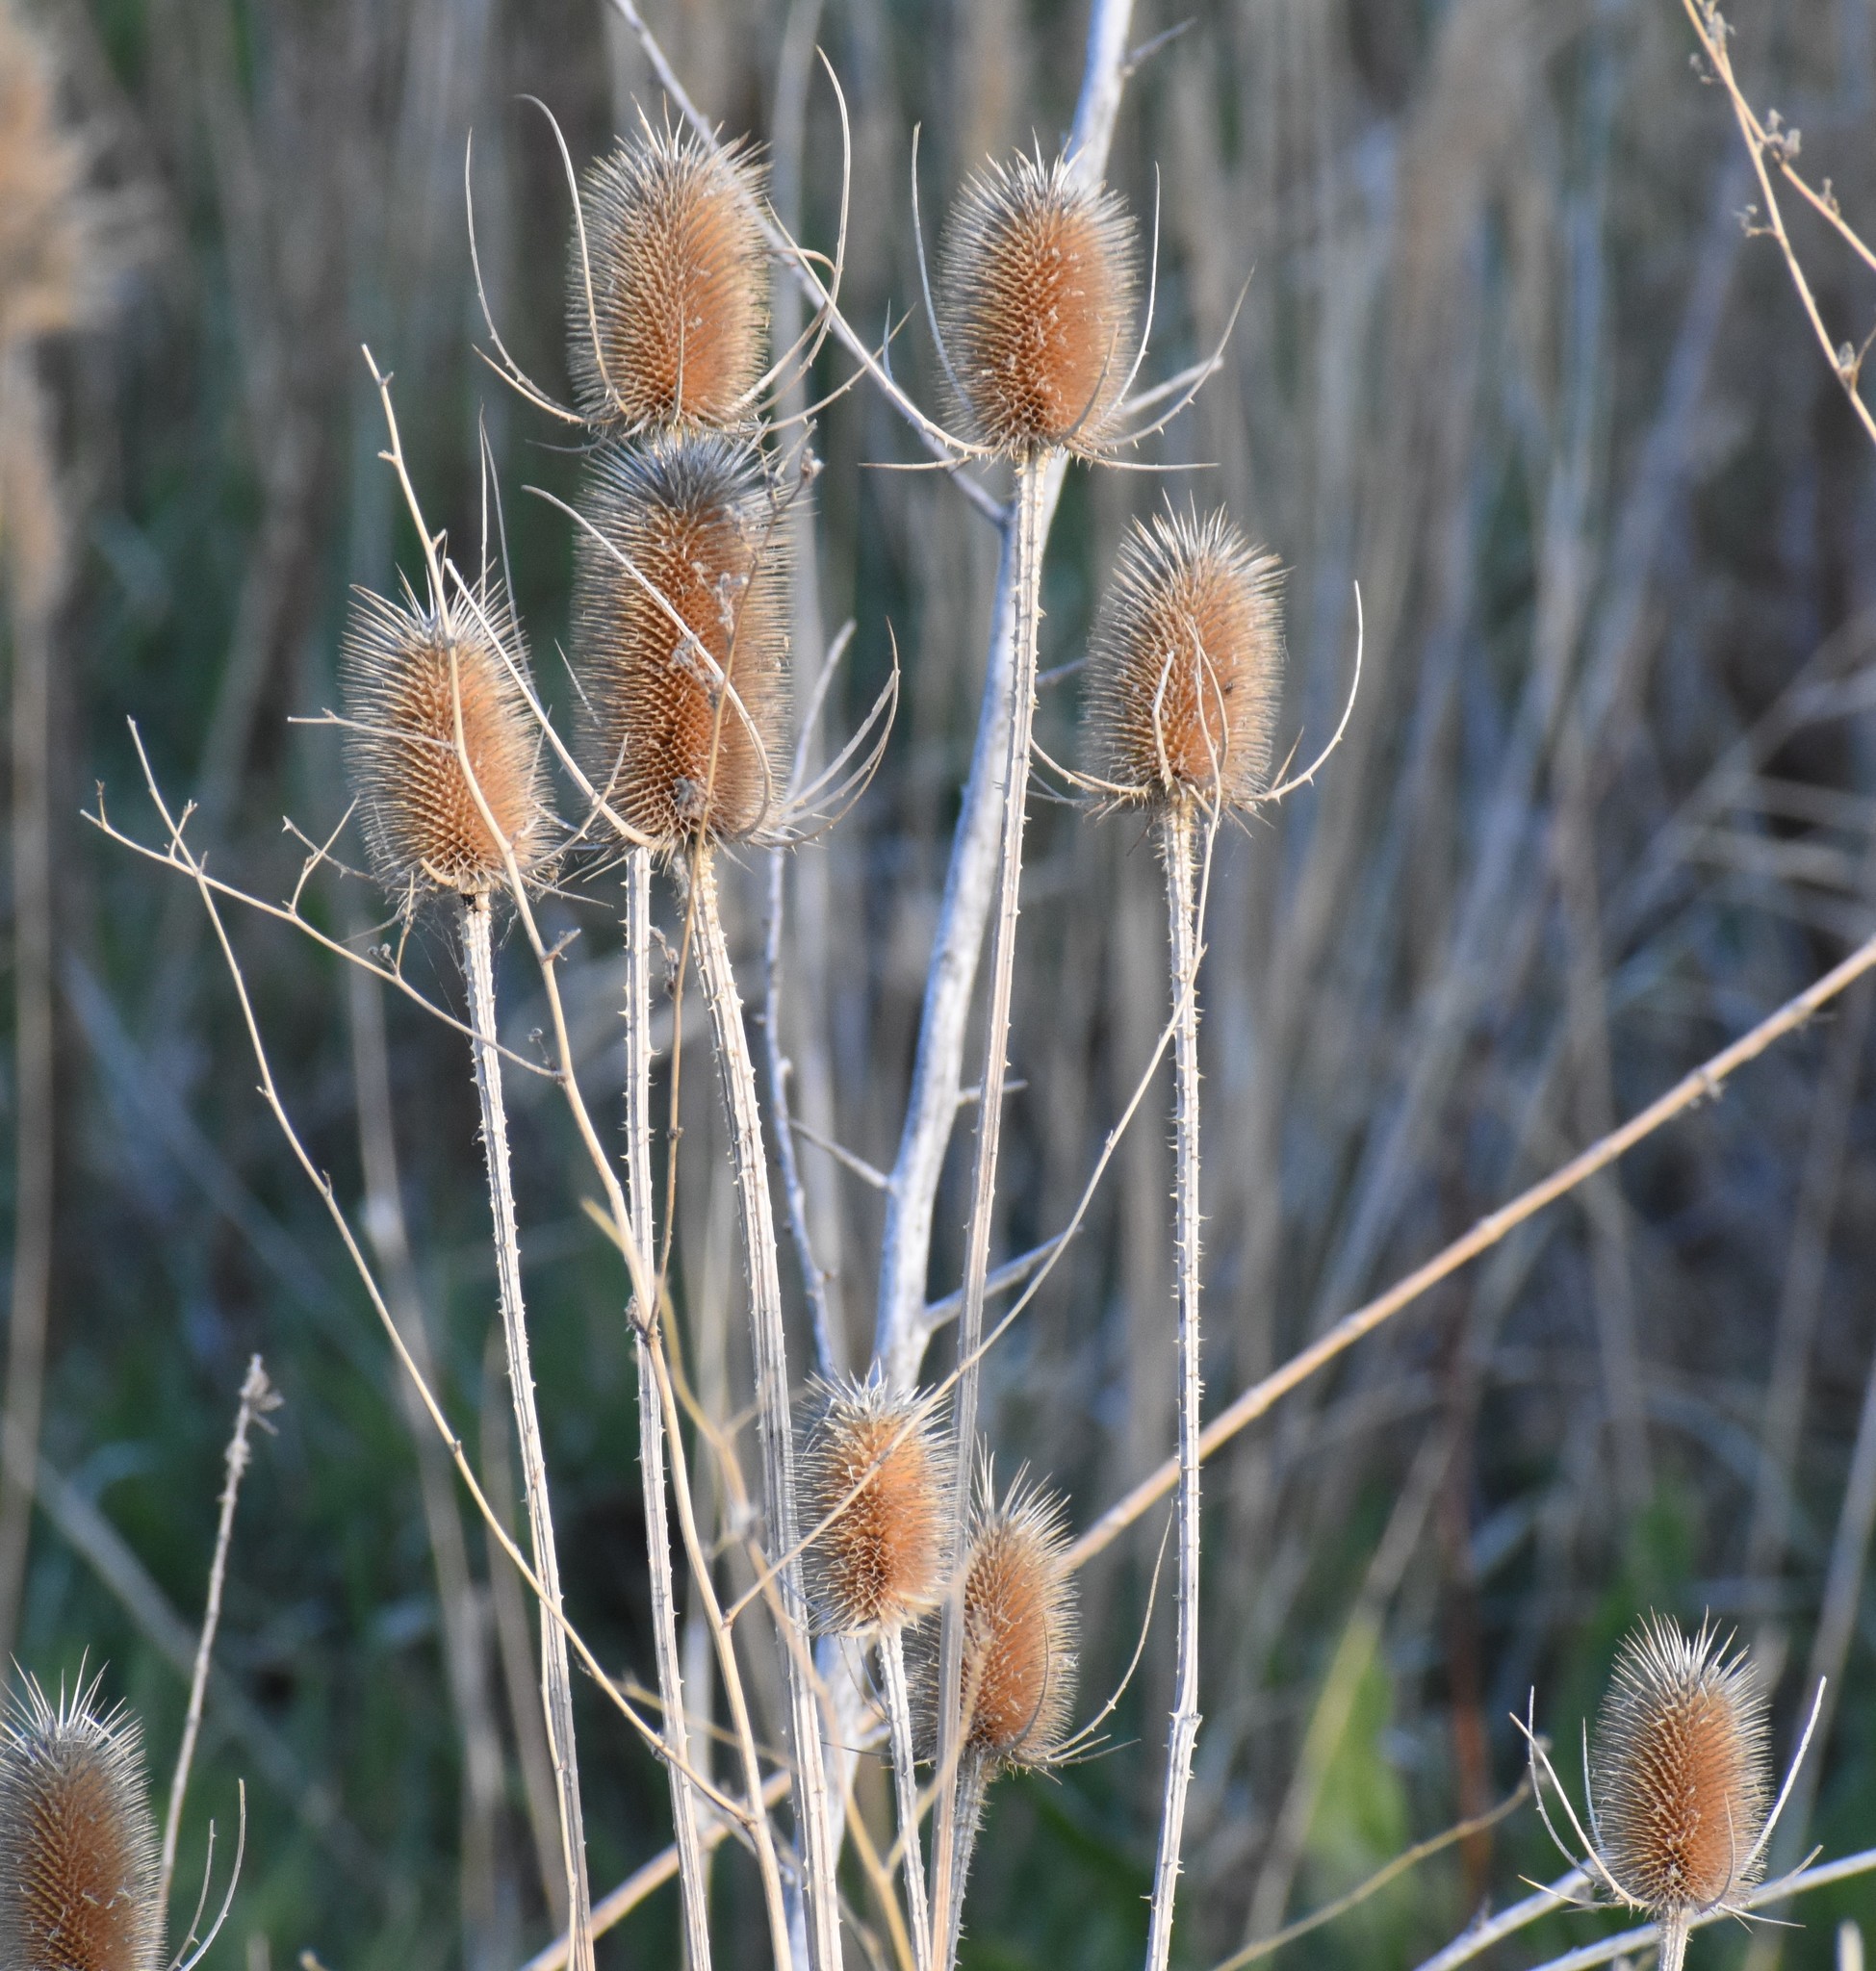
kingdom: Plantae
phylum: Tracheophyta
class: Magnoliopsida
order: Dipsacales
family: Caprifoliaceae
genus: Dipsacus
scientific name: Dipsacus fullonum
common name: Teasel
